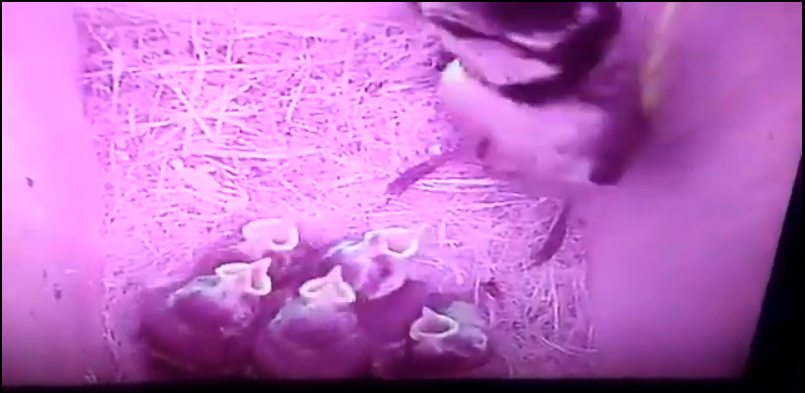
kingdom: Animalia
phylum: Chordata
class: Aves
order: Passeriformes
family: Paridae
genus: Cyanistes
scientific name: Cyanistes caeruleus
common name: Eurasian blue tit
